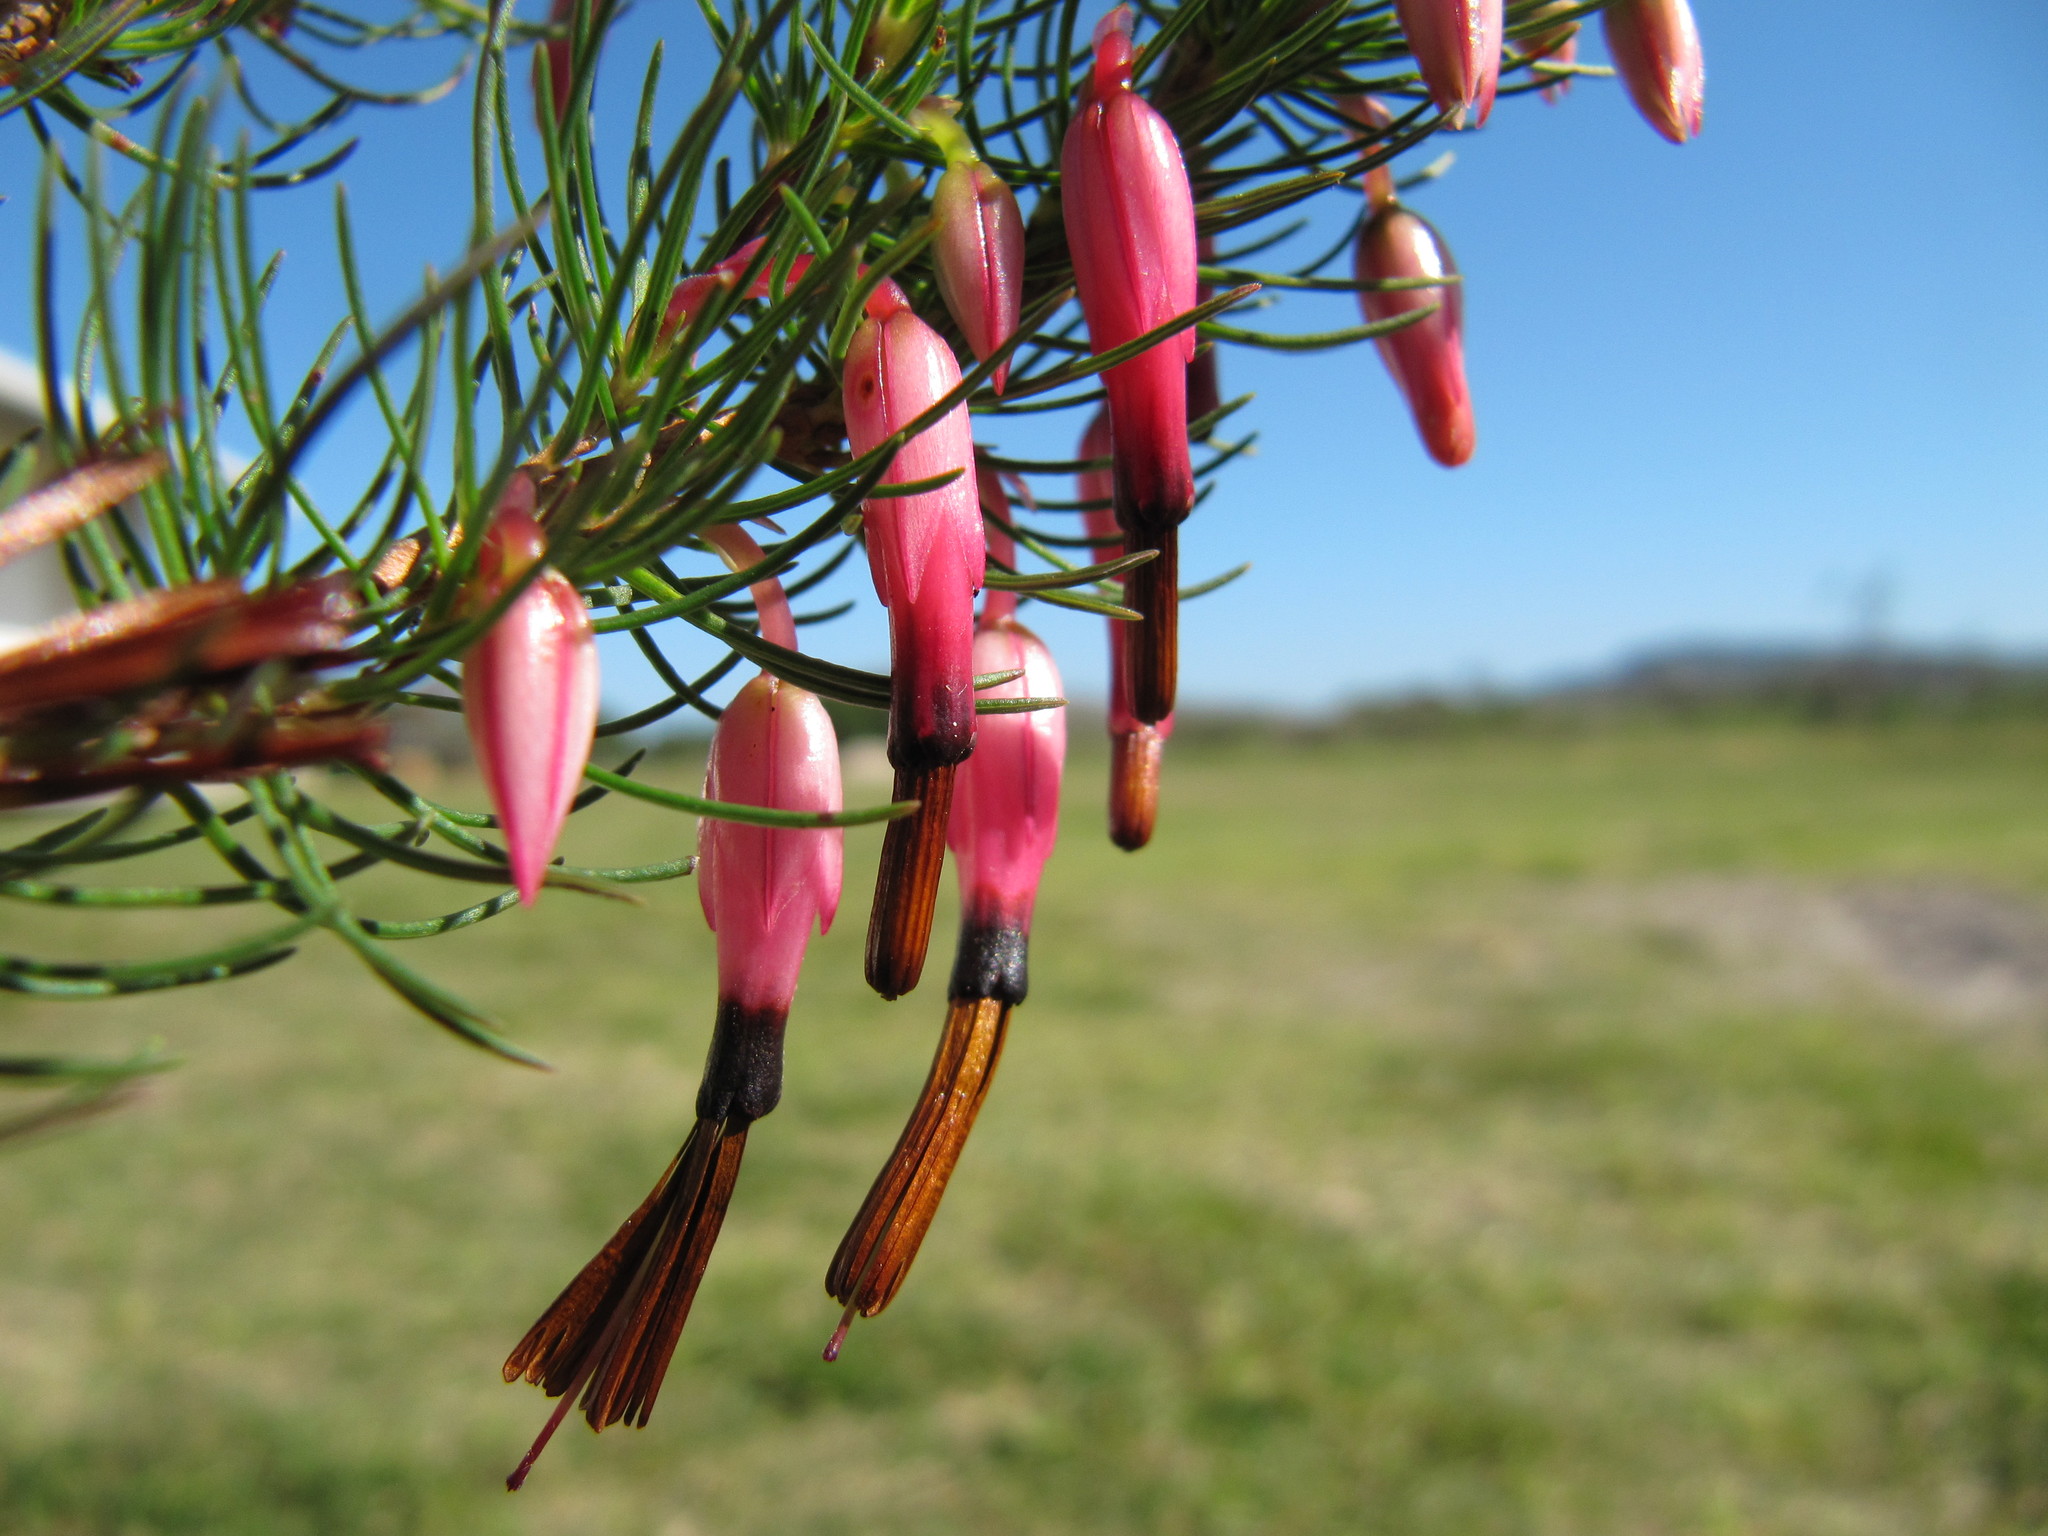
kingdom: Plantae
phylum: Tracheophyta
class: Magnoliopsida
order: Ericales
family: Ericaceae
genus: Erica
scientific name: Erica plukenetii
